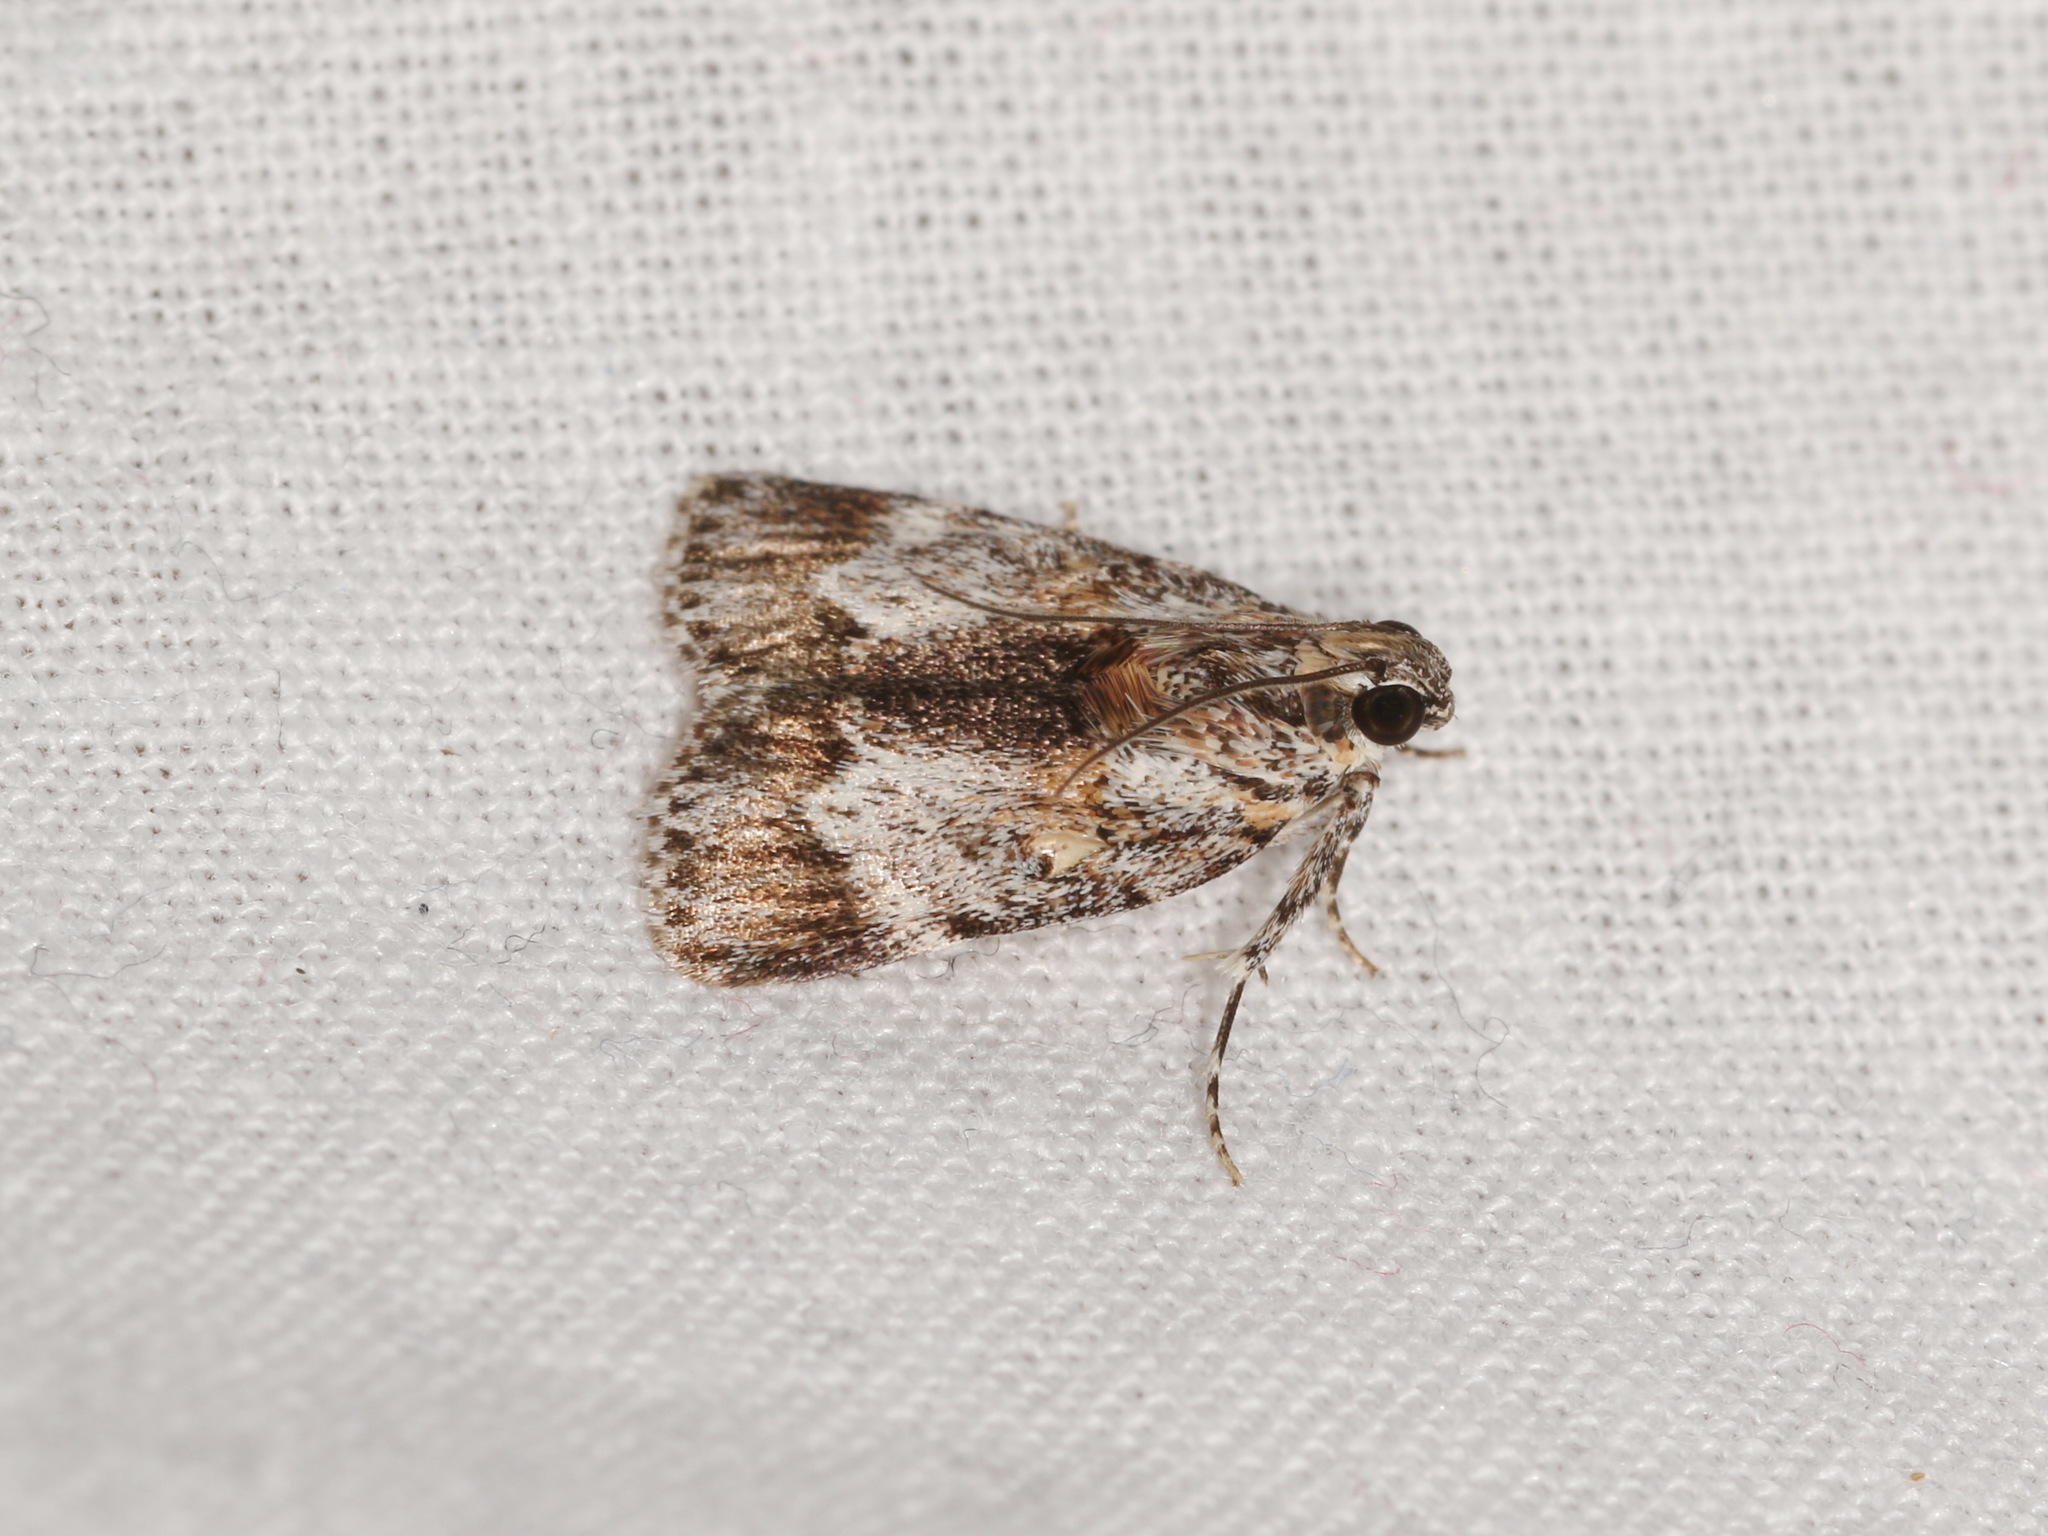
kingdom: Animalia
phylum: Arthropoda
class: Insecta
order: Lepidoptera
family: Pyralidae
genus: Spectrotrota
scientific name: Spectrotrota fimbrialis
